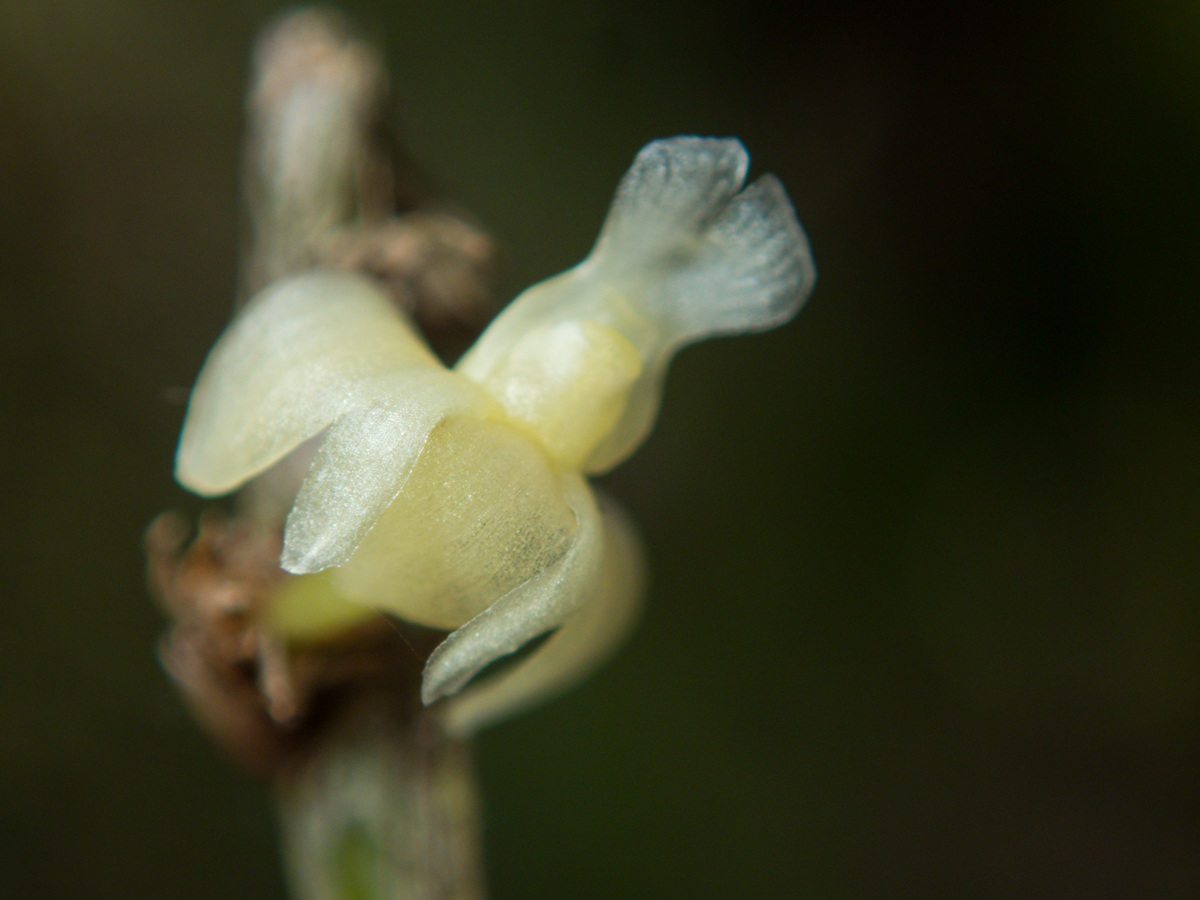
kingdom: Plantae
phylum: Tracheophyta
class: Liliopsida
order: Asparagales
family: Orchidaceae
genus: Dendrobium
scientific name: Dendrobium aloifolium
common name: Aloe-like dendrobium
